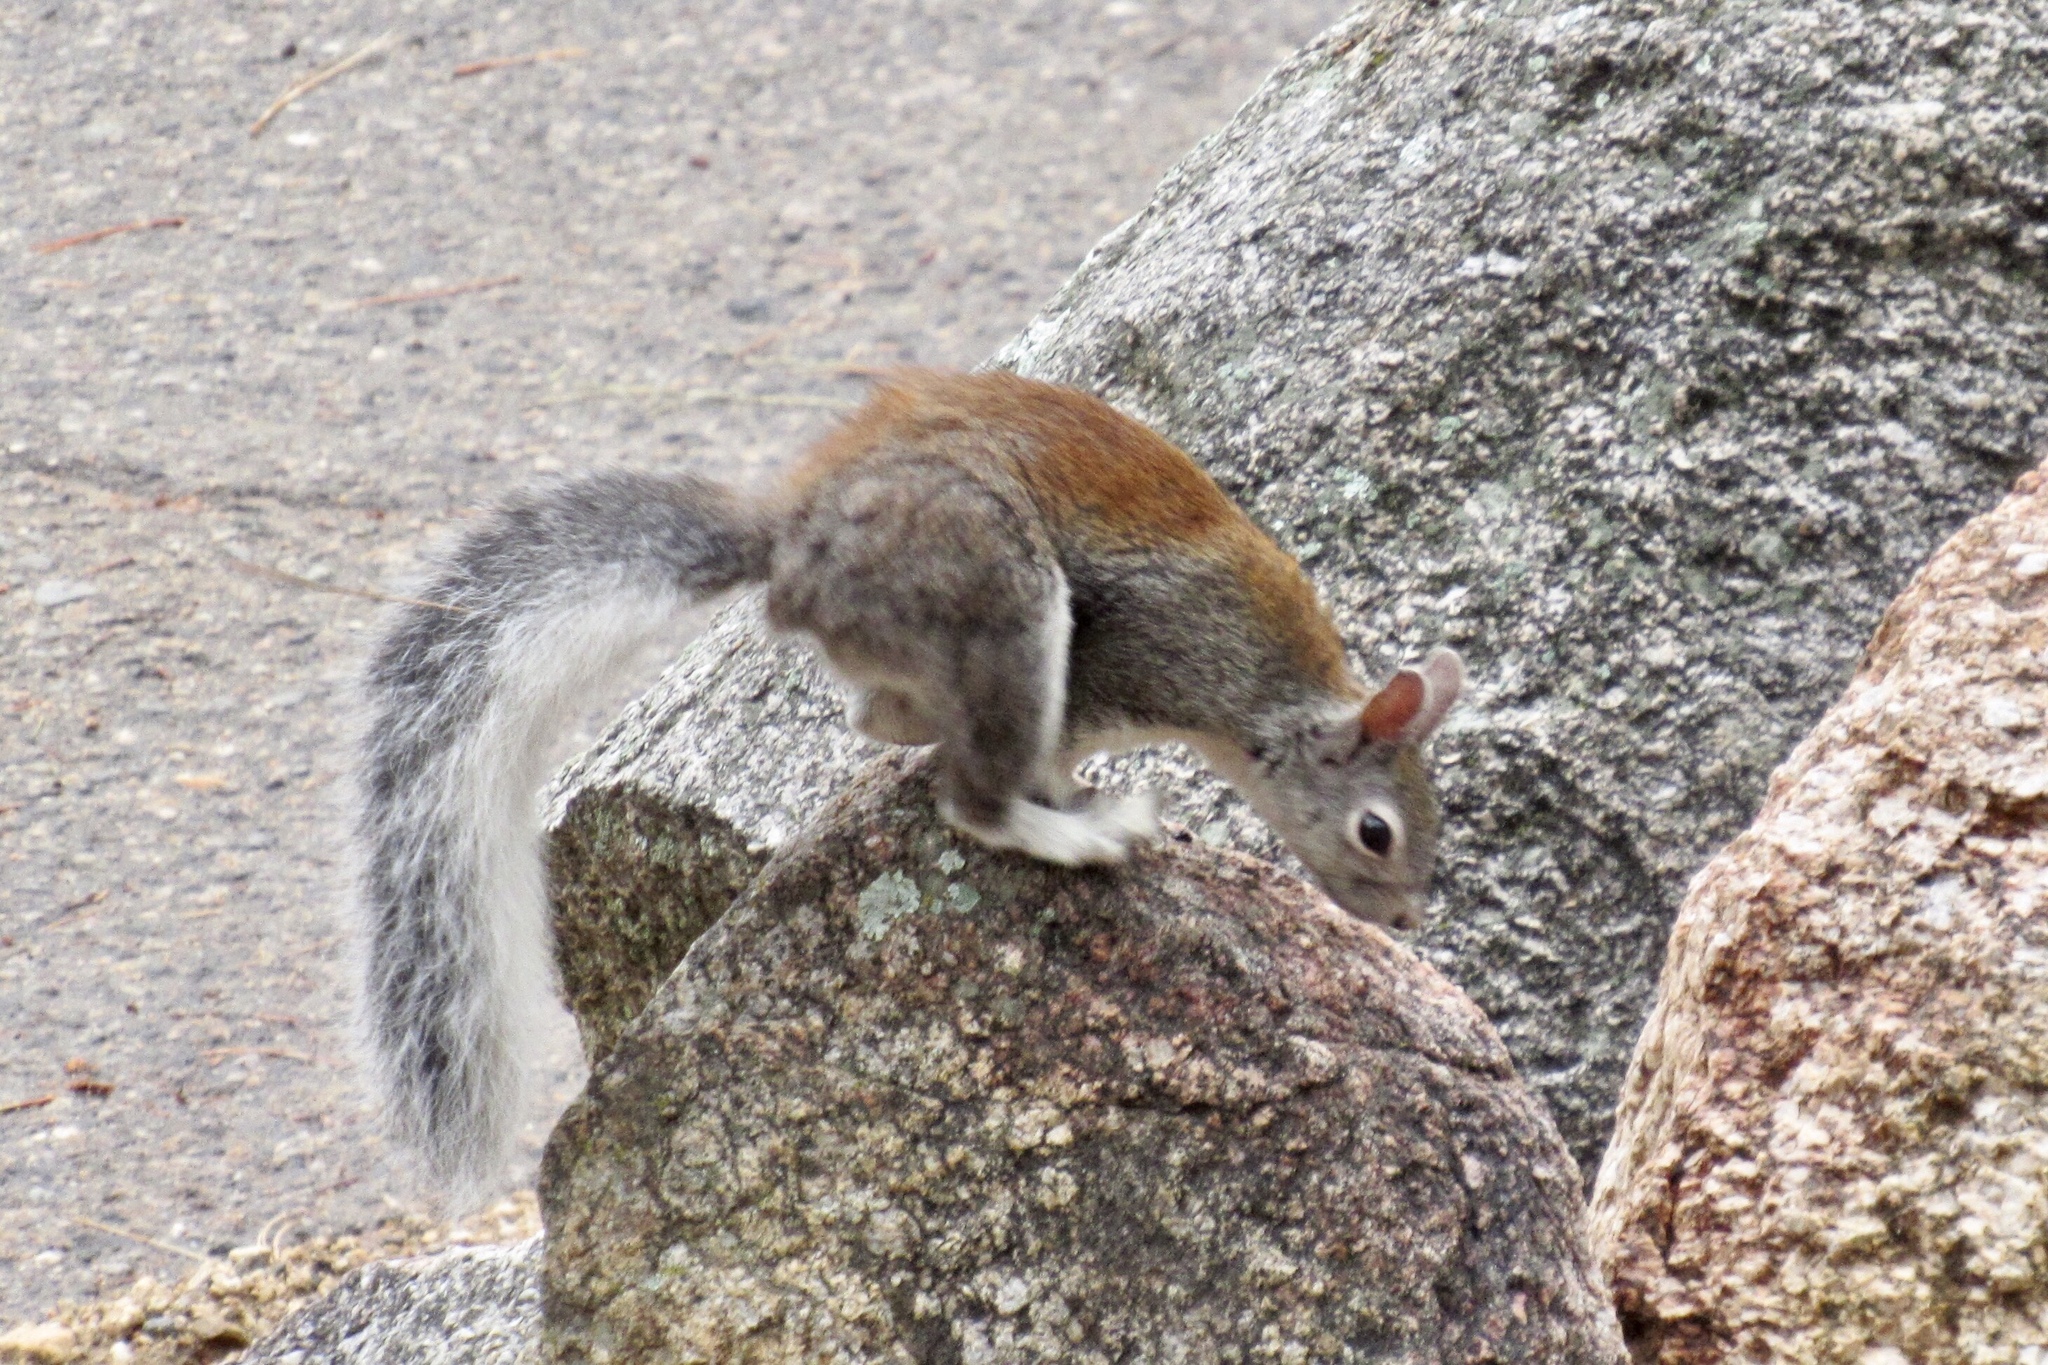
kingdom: Animalia
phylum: Chordata
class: Mammalia
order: Rodentia
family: Sciuridae
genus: Sciurus
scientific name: Sciurus aberti
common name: Abert's squirrel
